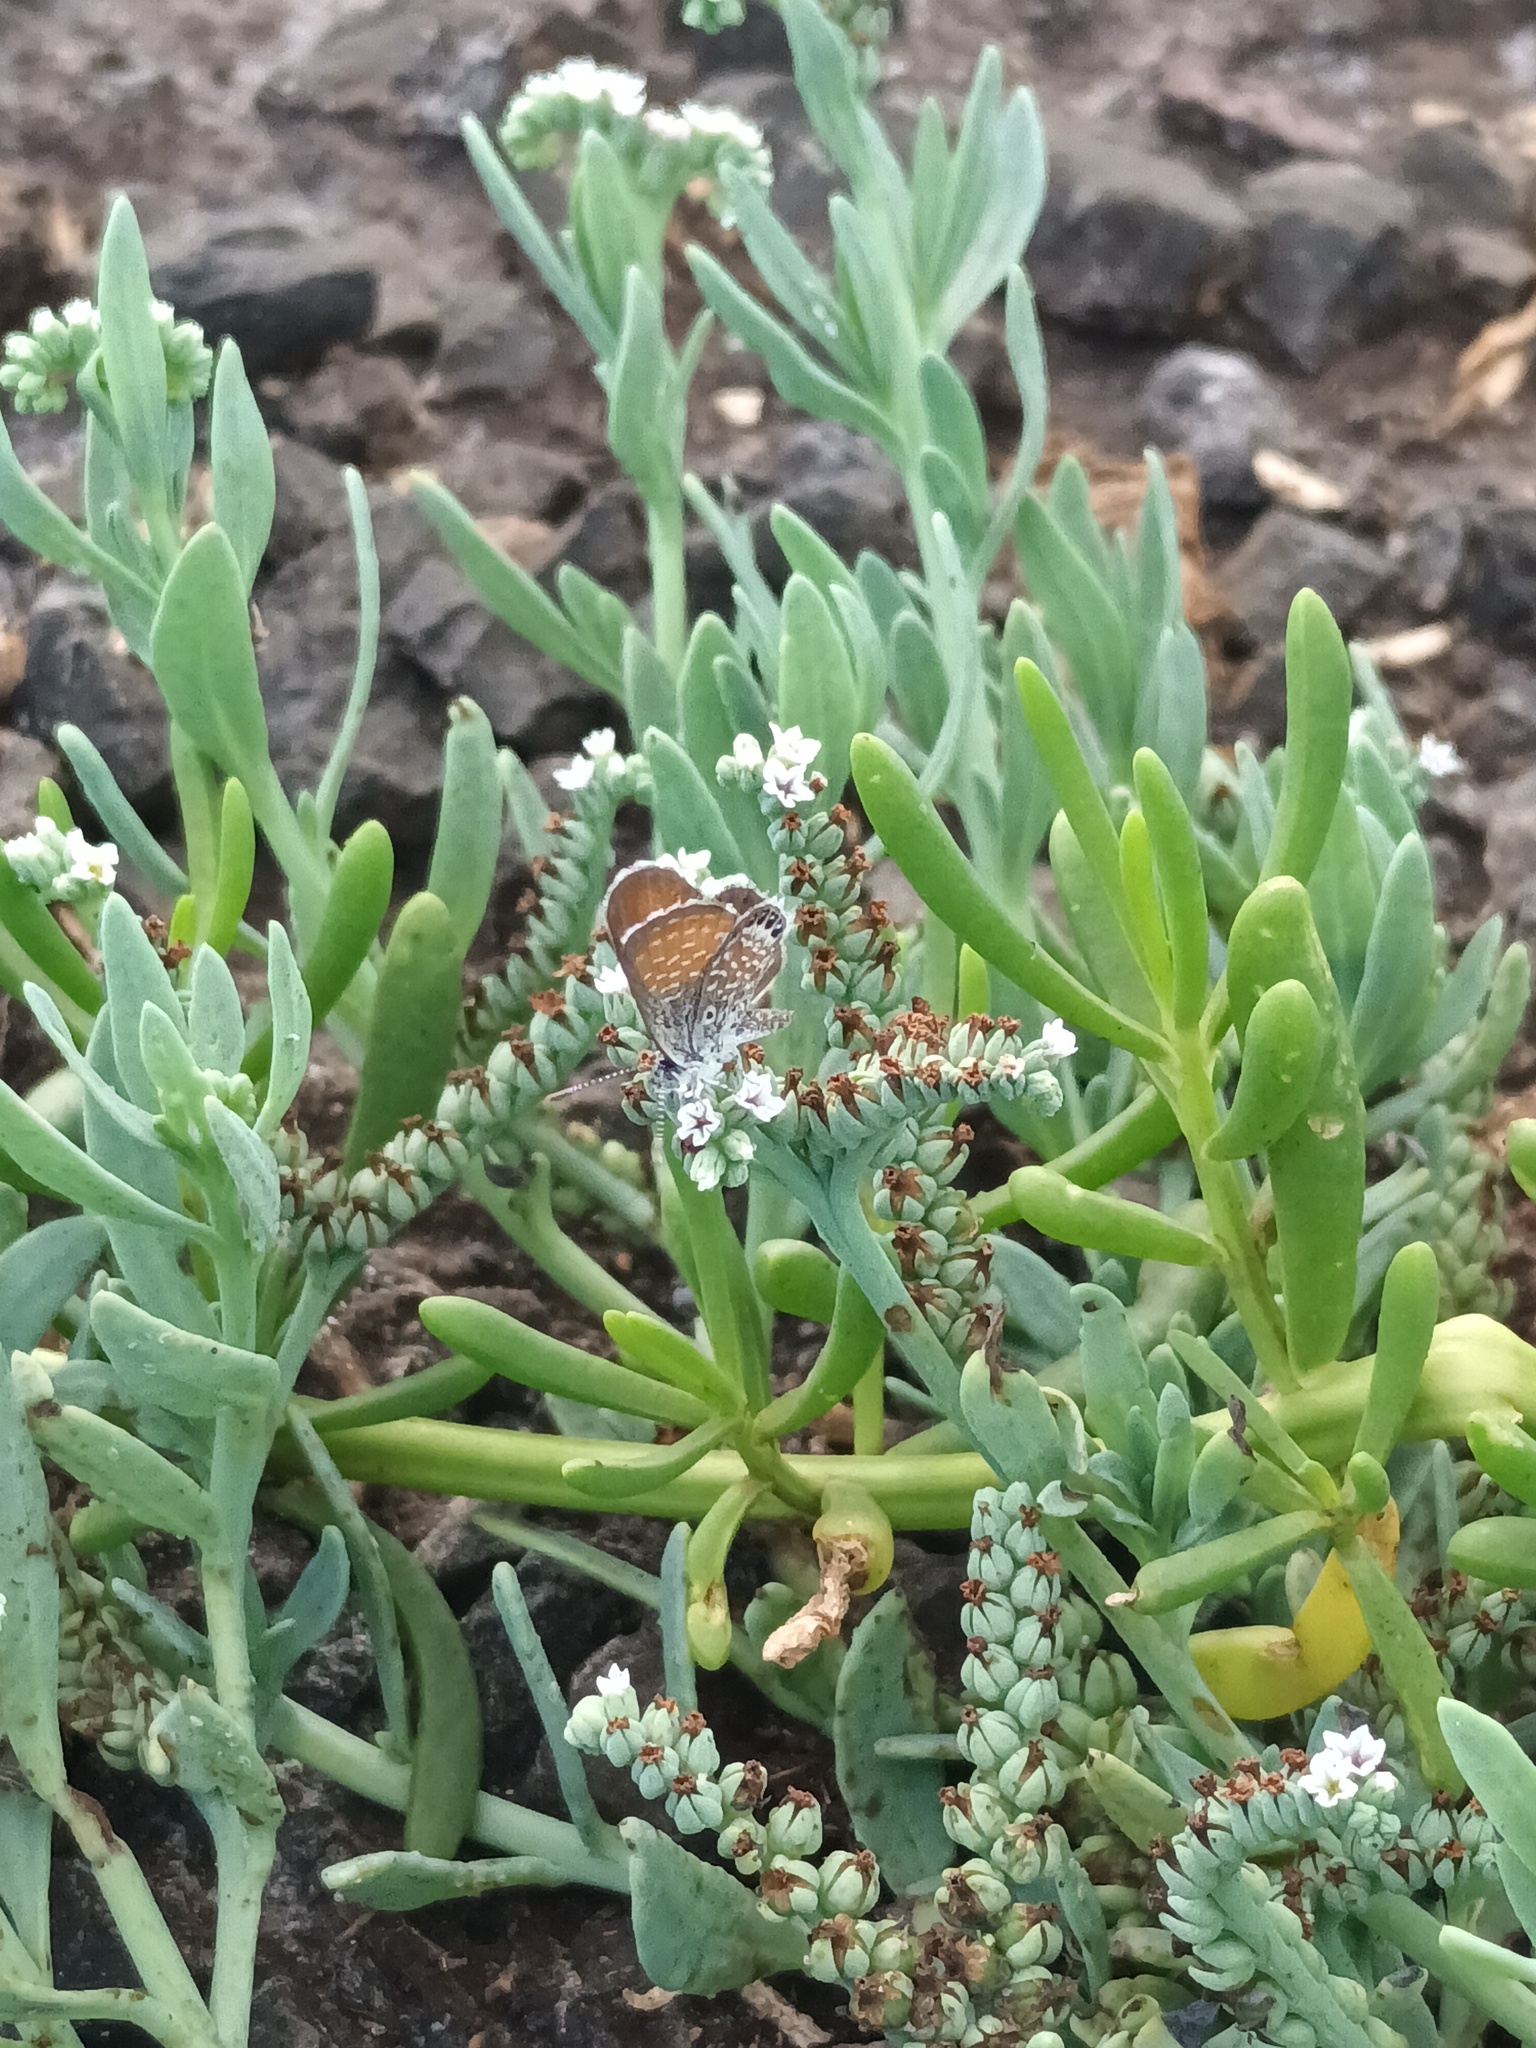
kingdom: Animalia
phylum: Arthropoda
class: Insecta
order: Lepidoptera
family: Lycaenidae
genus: Brephidium
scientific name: Brephidium exilis
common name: Pygmy blue
